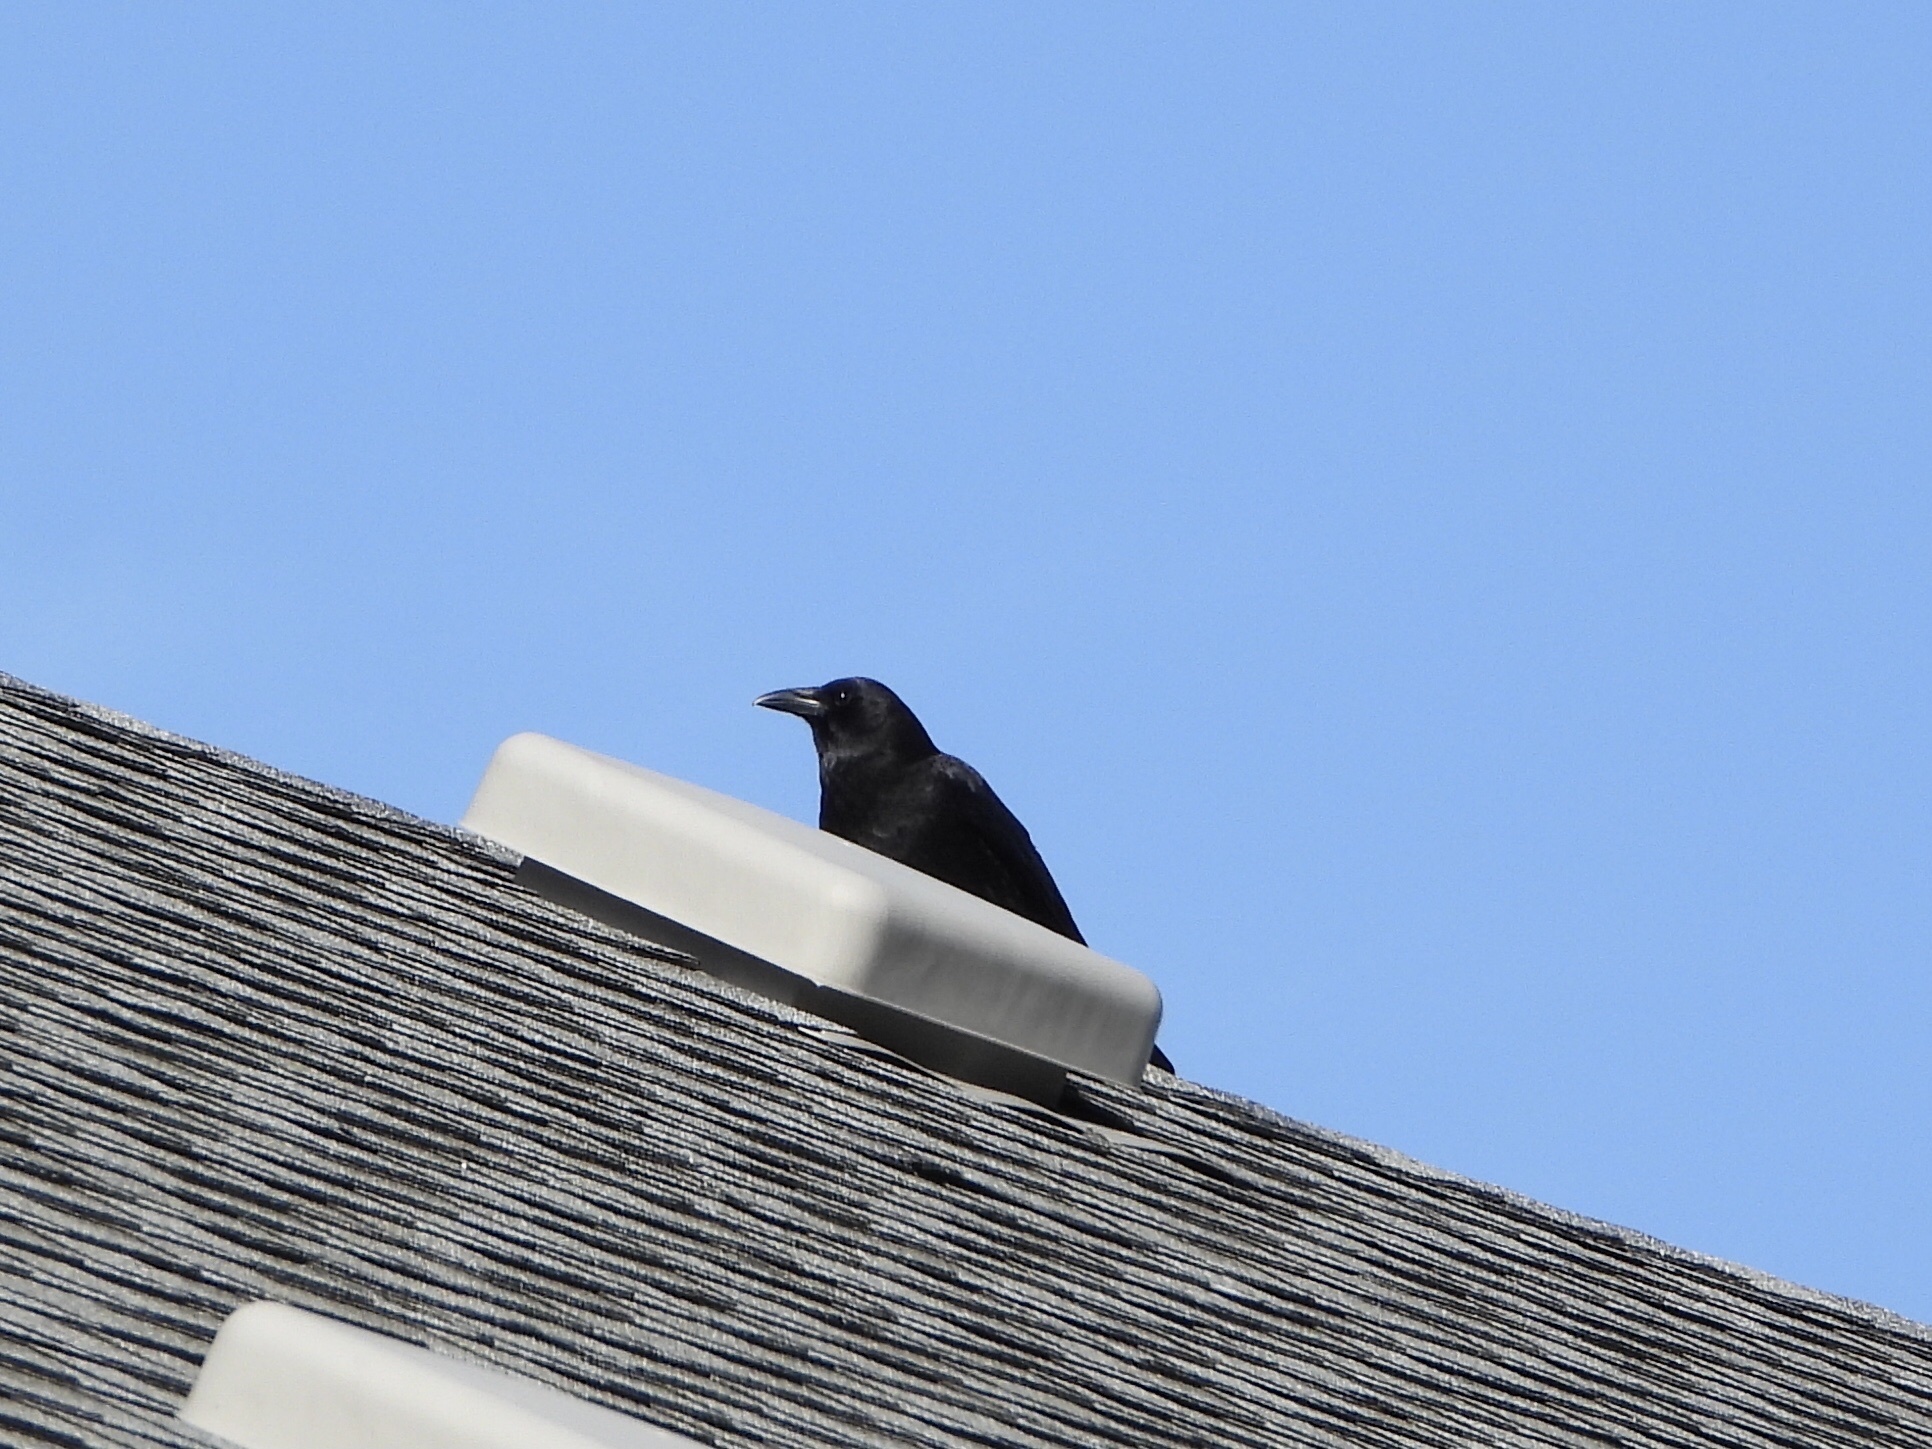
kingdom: Animalia
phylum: Chordata
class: Aves
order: Passeriformes
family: Corvidae
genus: Corvus
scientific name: Corvus brachyrhynchos
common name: American crow
